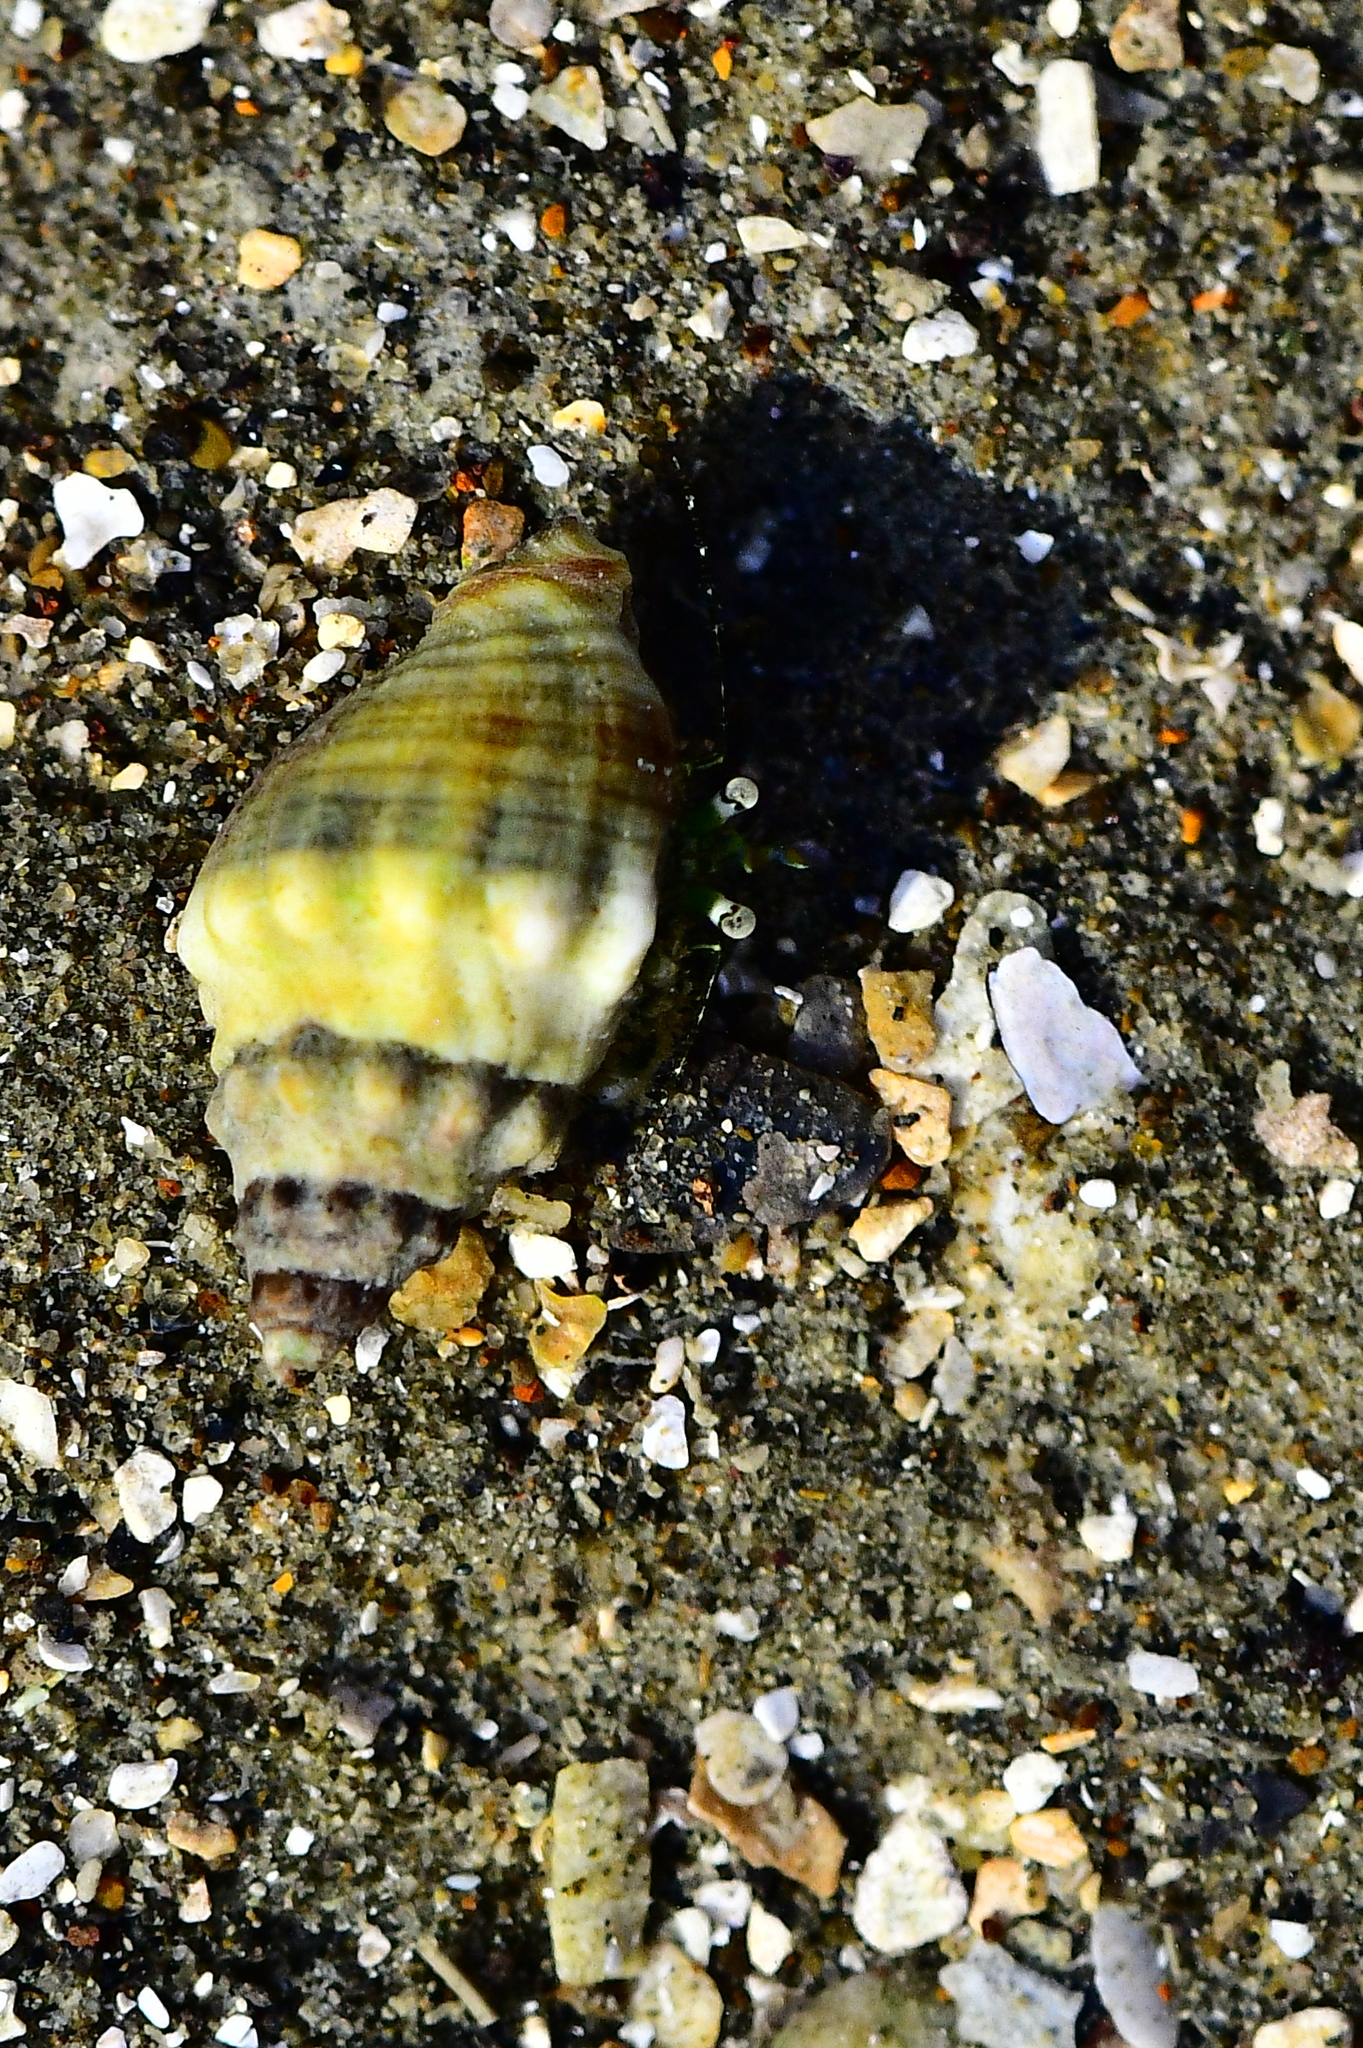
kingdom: Animalia
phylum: Arthropoda
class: Malacostraca
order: Decapoda
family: Paguridae
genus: Pagurus
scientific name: Pagurus novizealandiae
